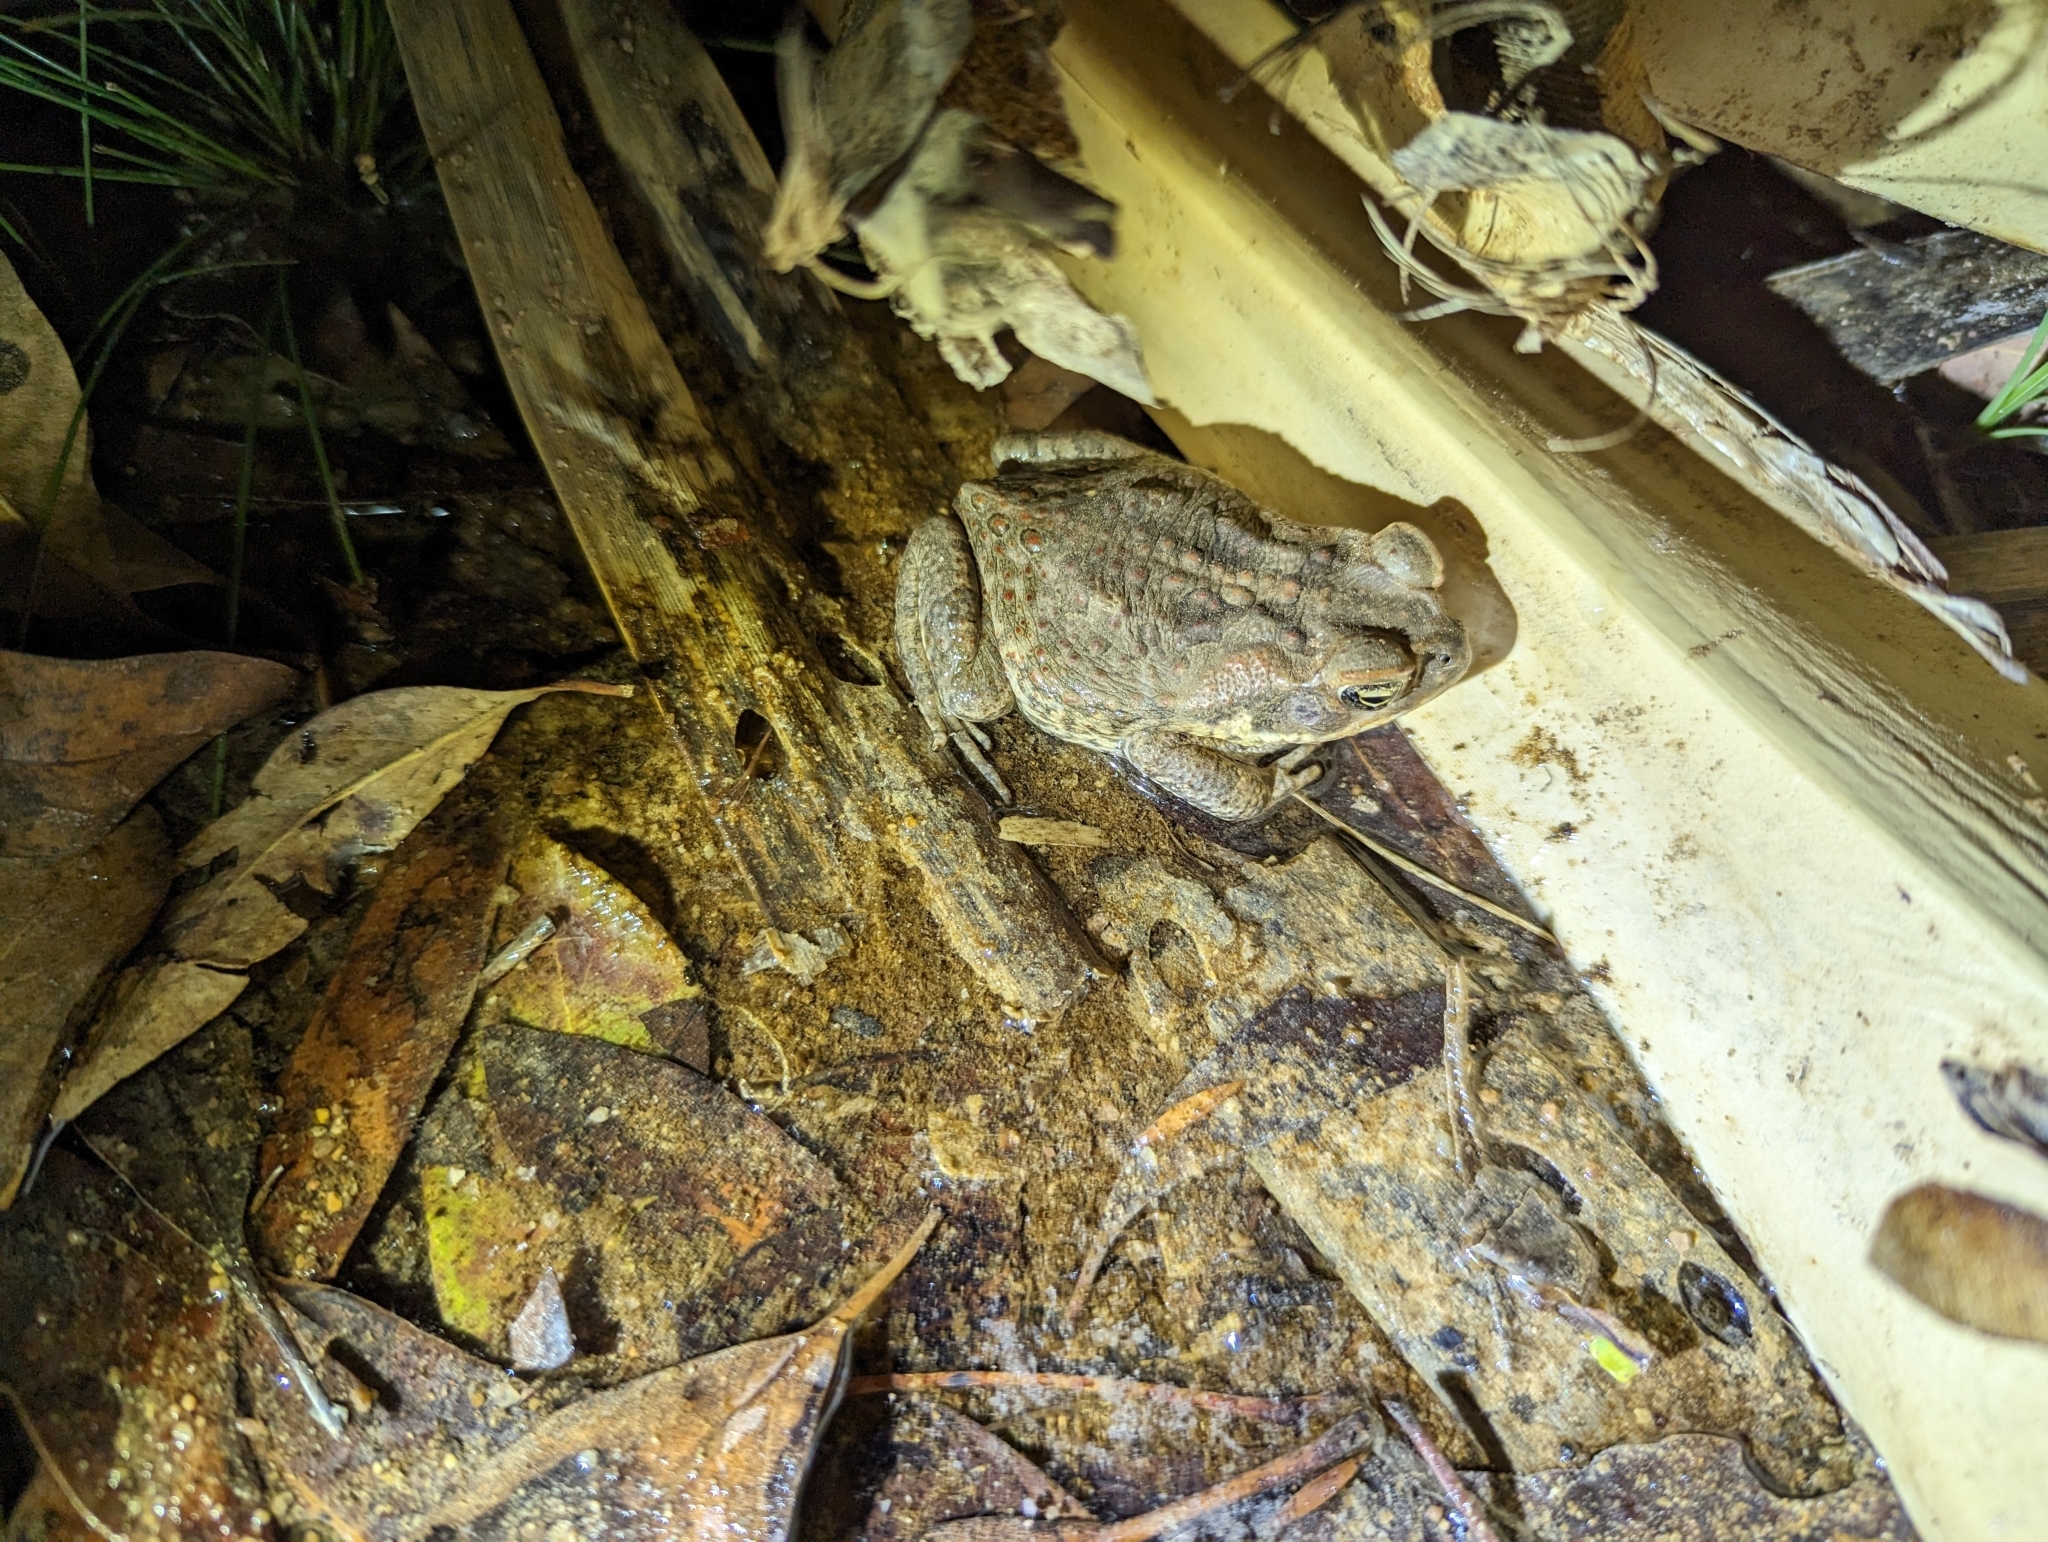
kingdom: Animalia
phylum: Chordata
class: Amphibia
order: Anura
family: Bufonidae
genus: Rhinella
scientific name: Rhinella marina
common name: Cane toad
